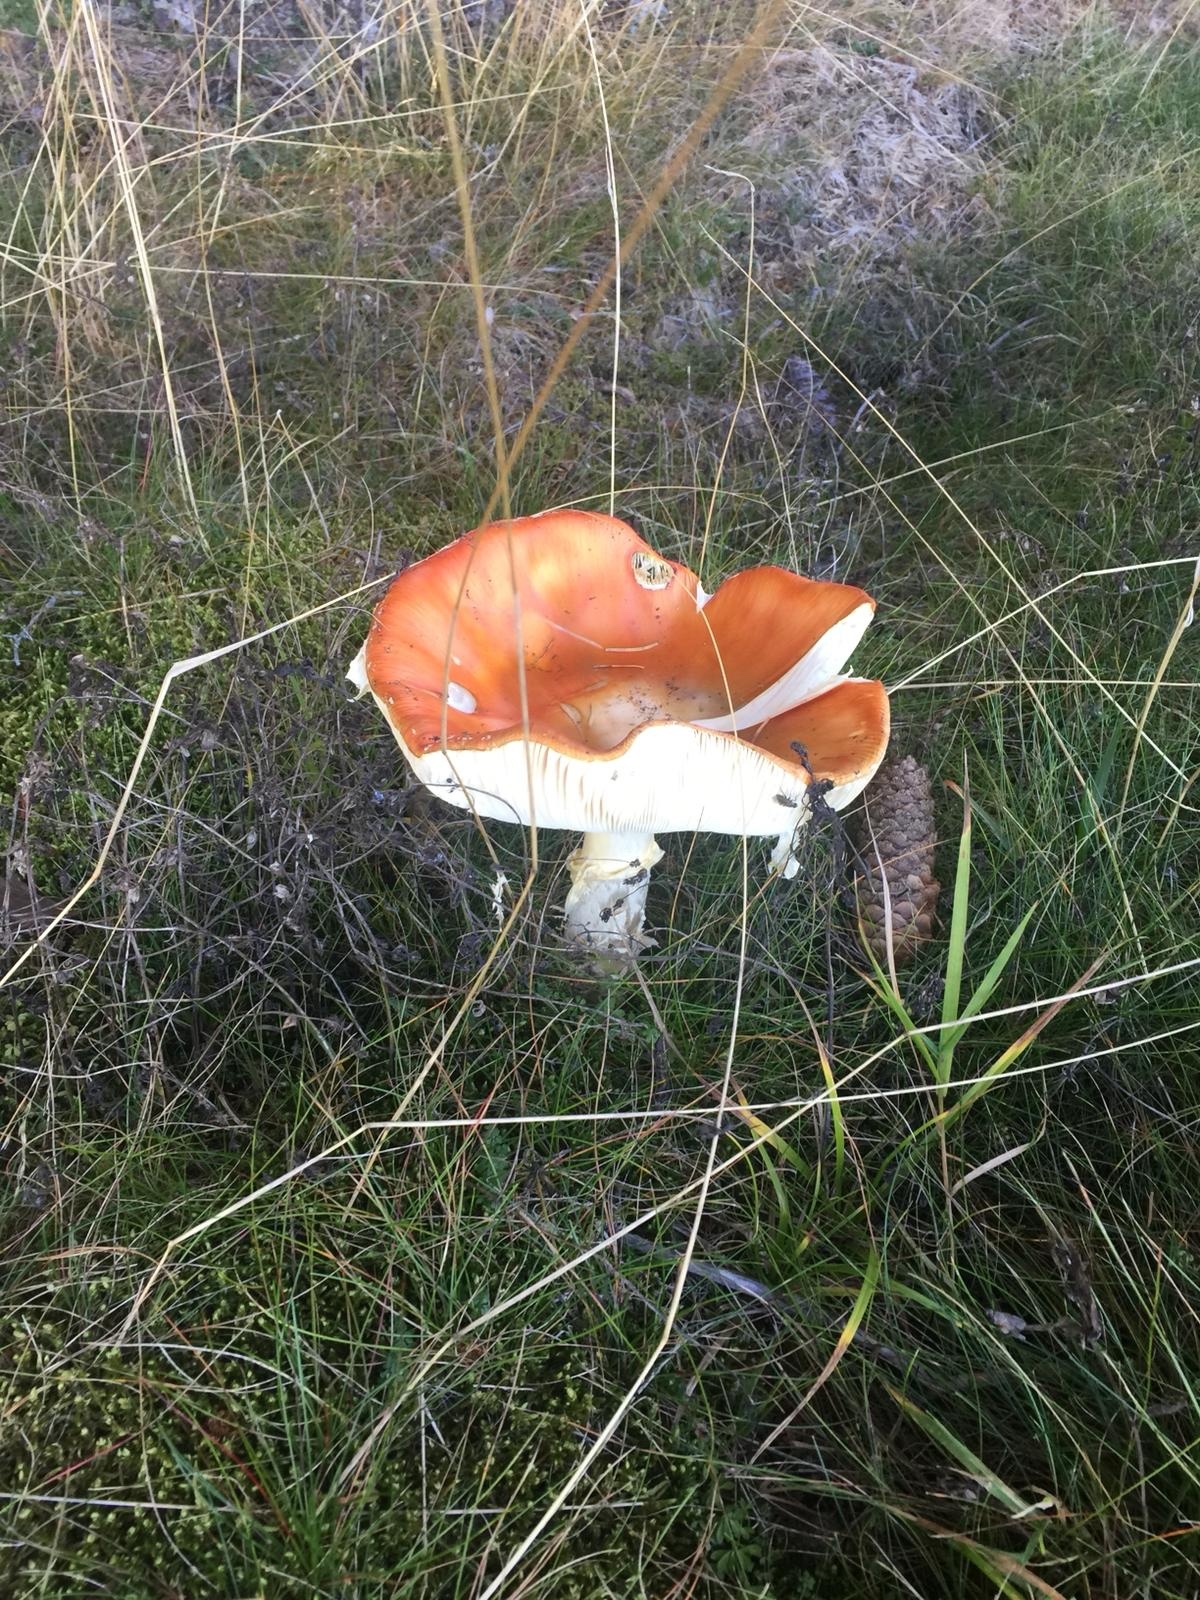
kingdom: Fungi
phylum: Basidiomycota
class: Agaricomycetes
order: Agaricales
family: Amanitaceae
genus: Amanita
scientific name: Amanita muscaria
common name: Fly agaric
